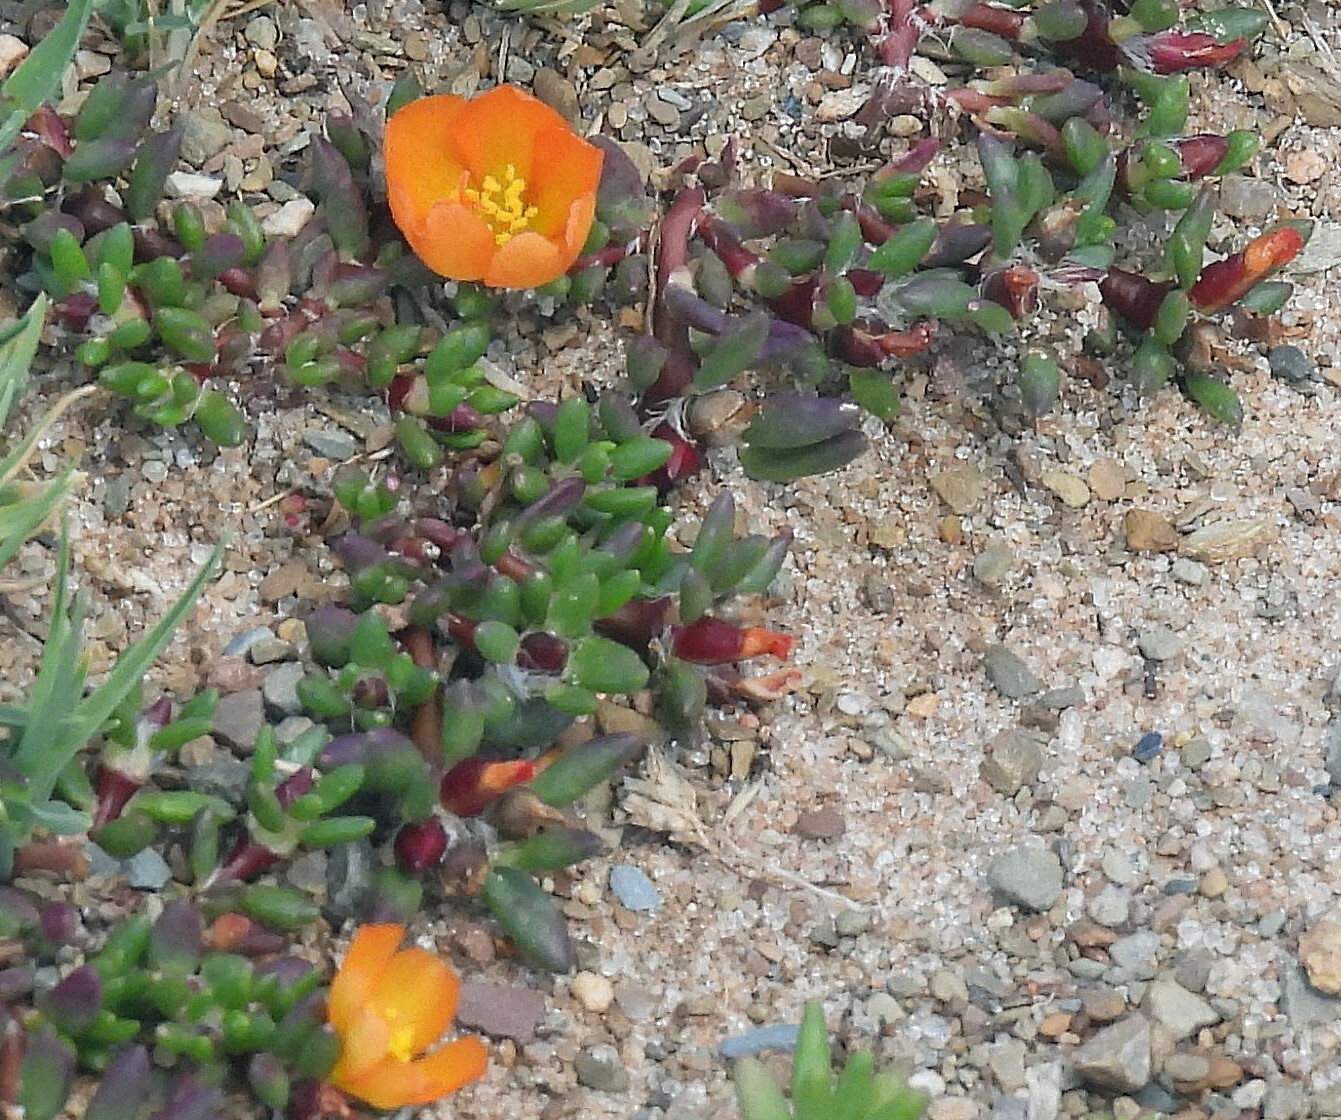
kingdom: Plantae
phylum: Tracheophyta
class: Magnoliopsida
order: Caryophyllales
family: Portulacaceae
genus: Portulaca
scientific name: Portulaca perennis
